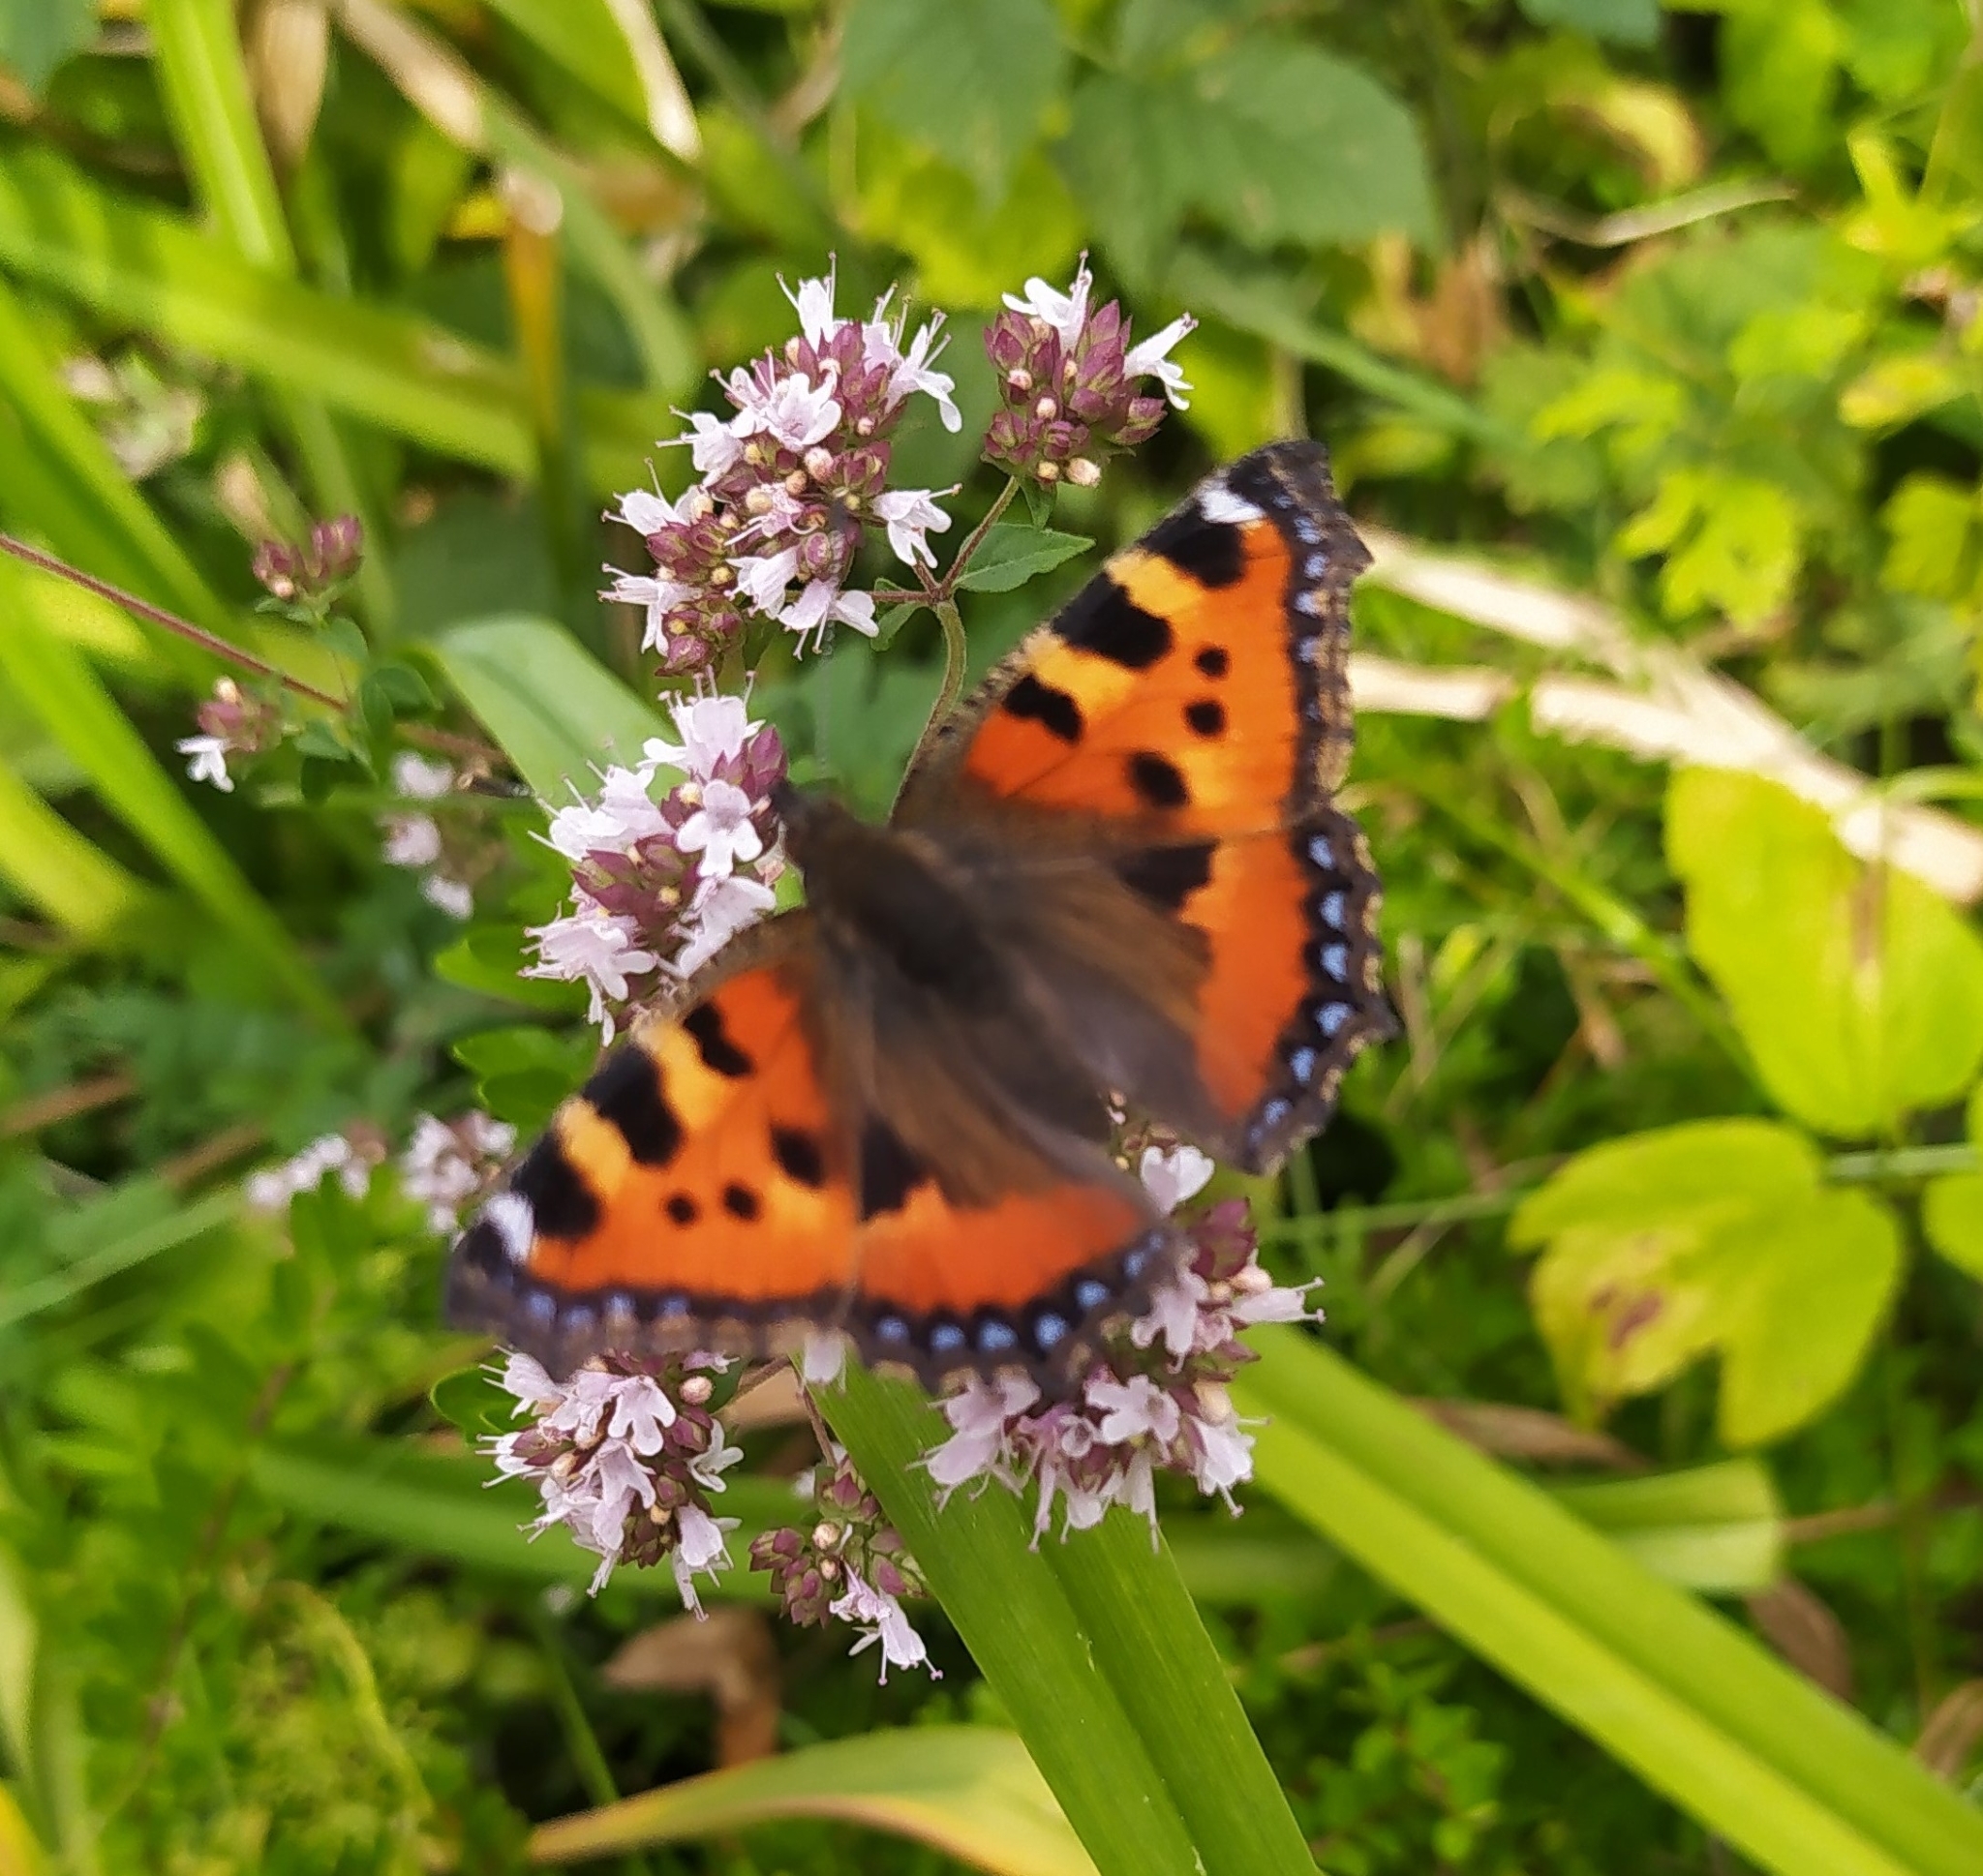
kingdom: Animalia
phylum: Arthropoda
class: Insecta
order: Lepidoptera
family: Nymphalidae
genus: Aglais
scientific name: Aglais urticae
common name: Small tortoiseshell
